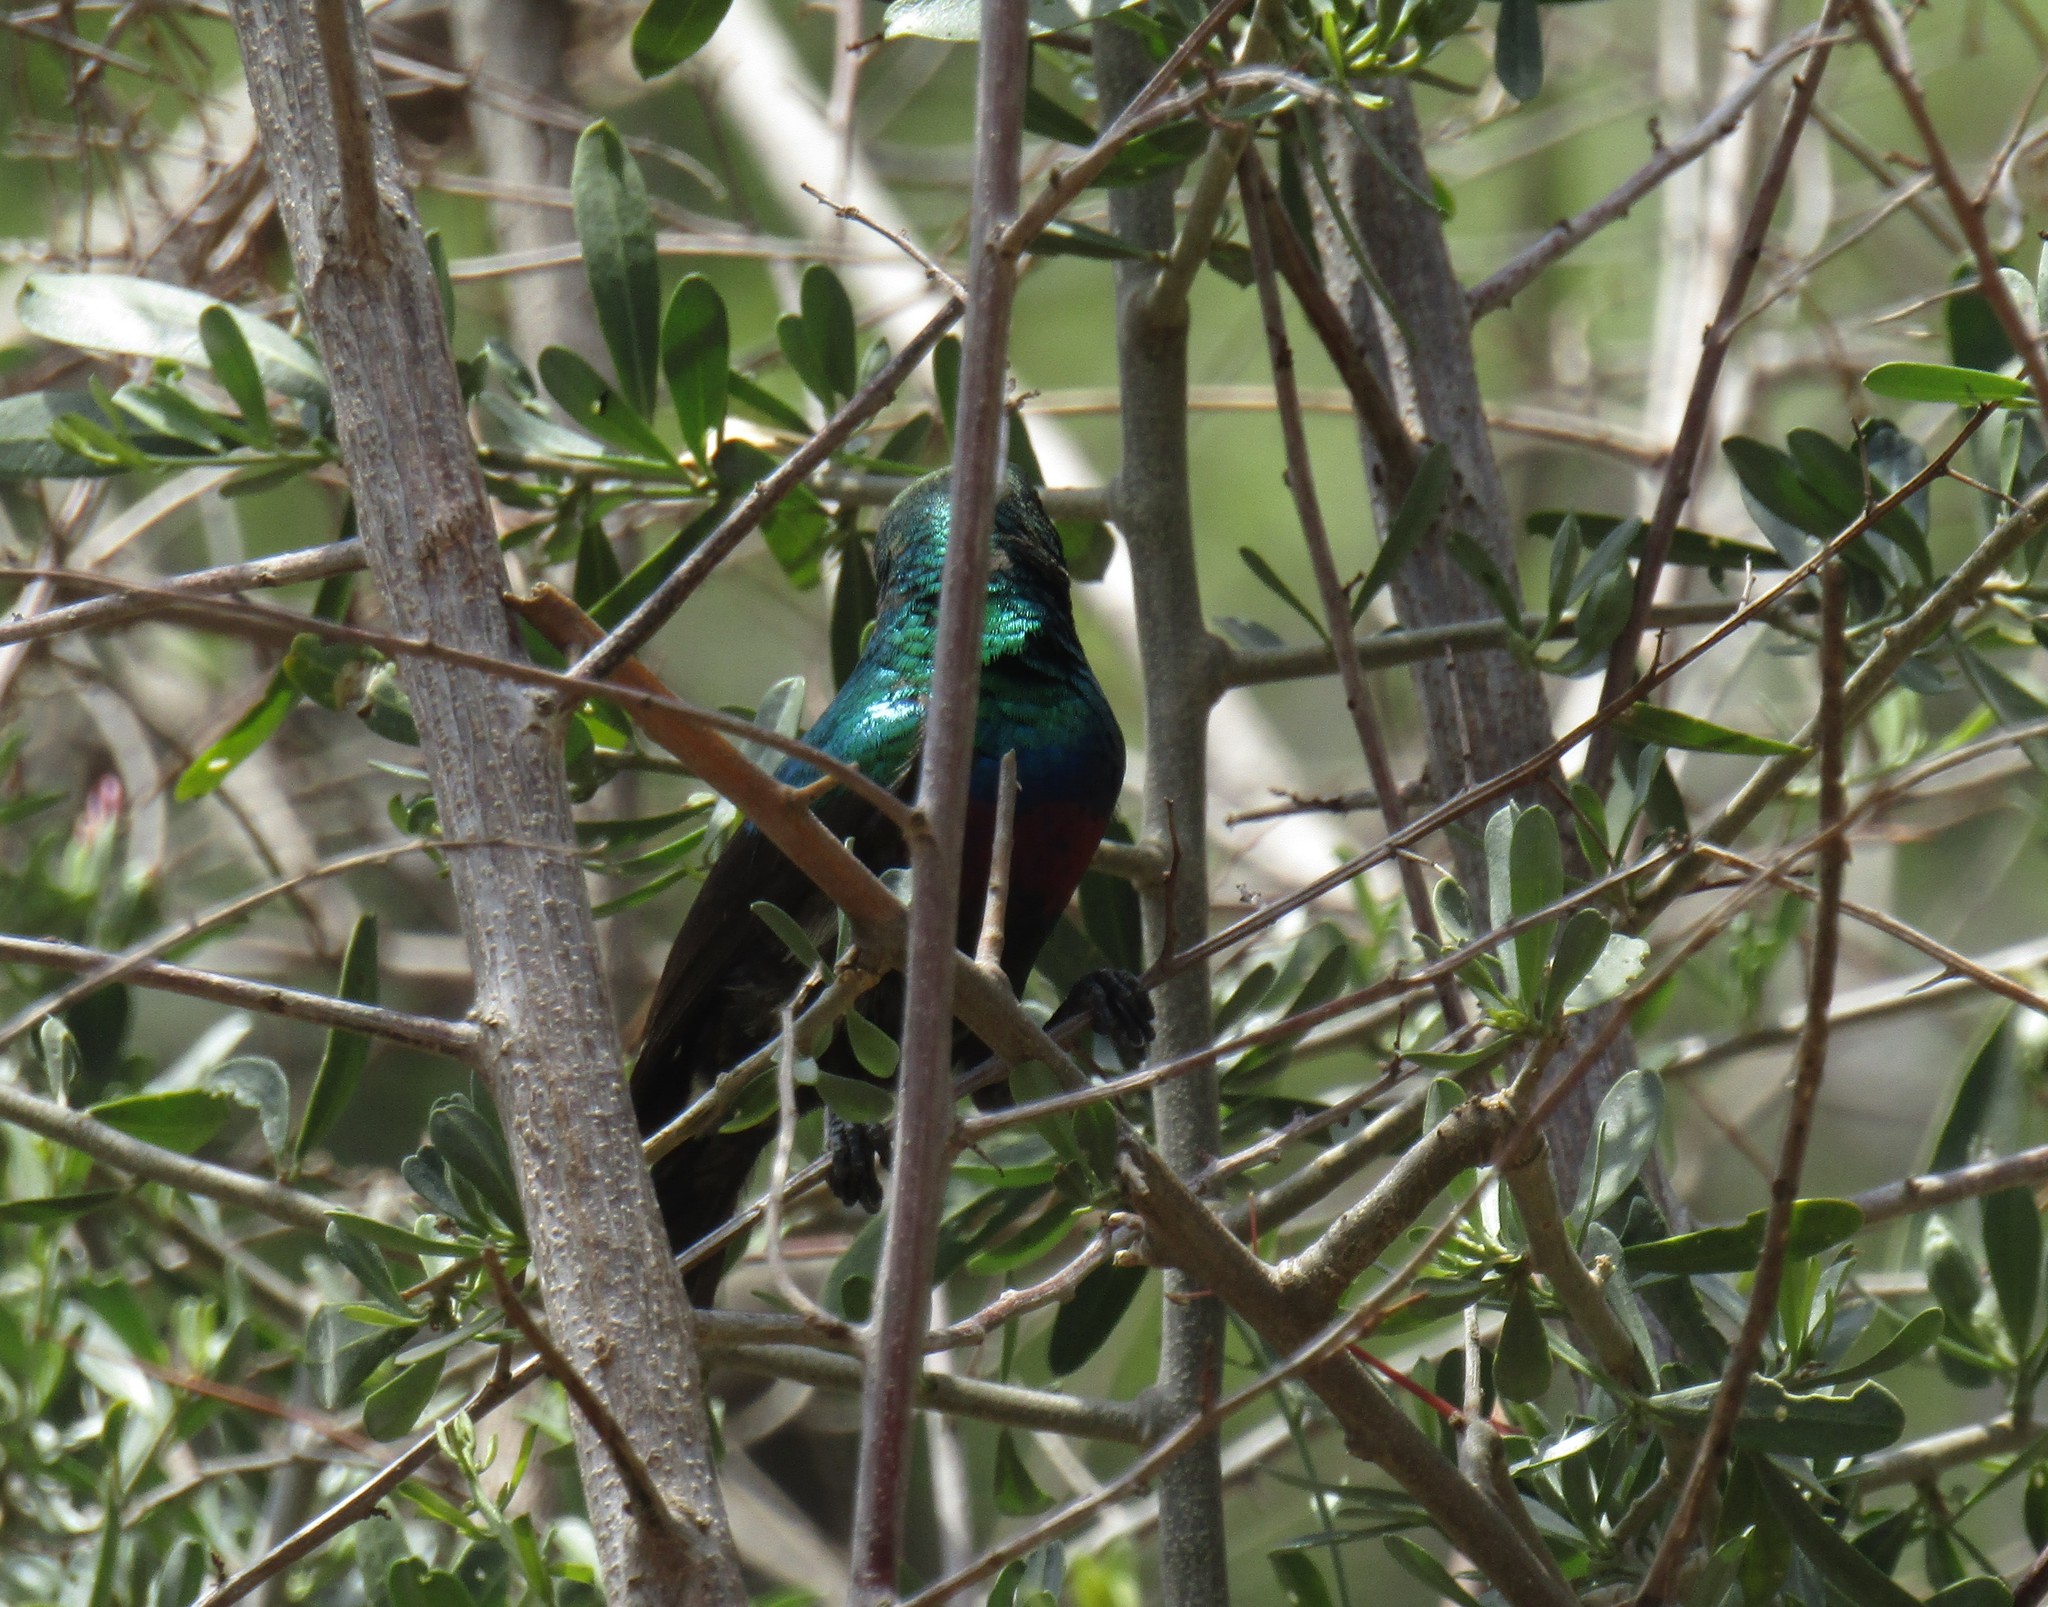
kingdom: Animalia
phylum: Chordata
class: Aves
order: Passeriformes
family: Nectariniidae
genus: Cinnyris
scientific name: Cinnyris mariquensis
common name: Marico sunbird
